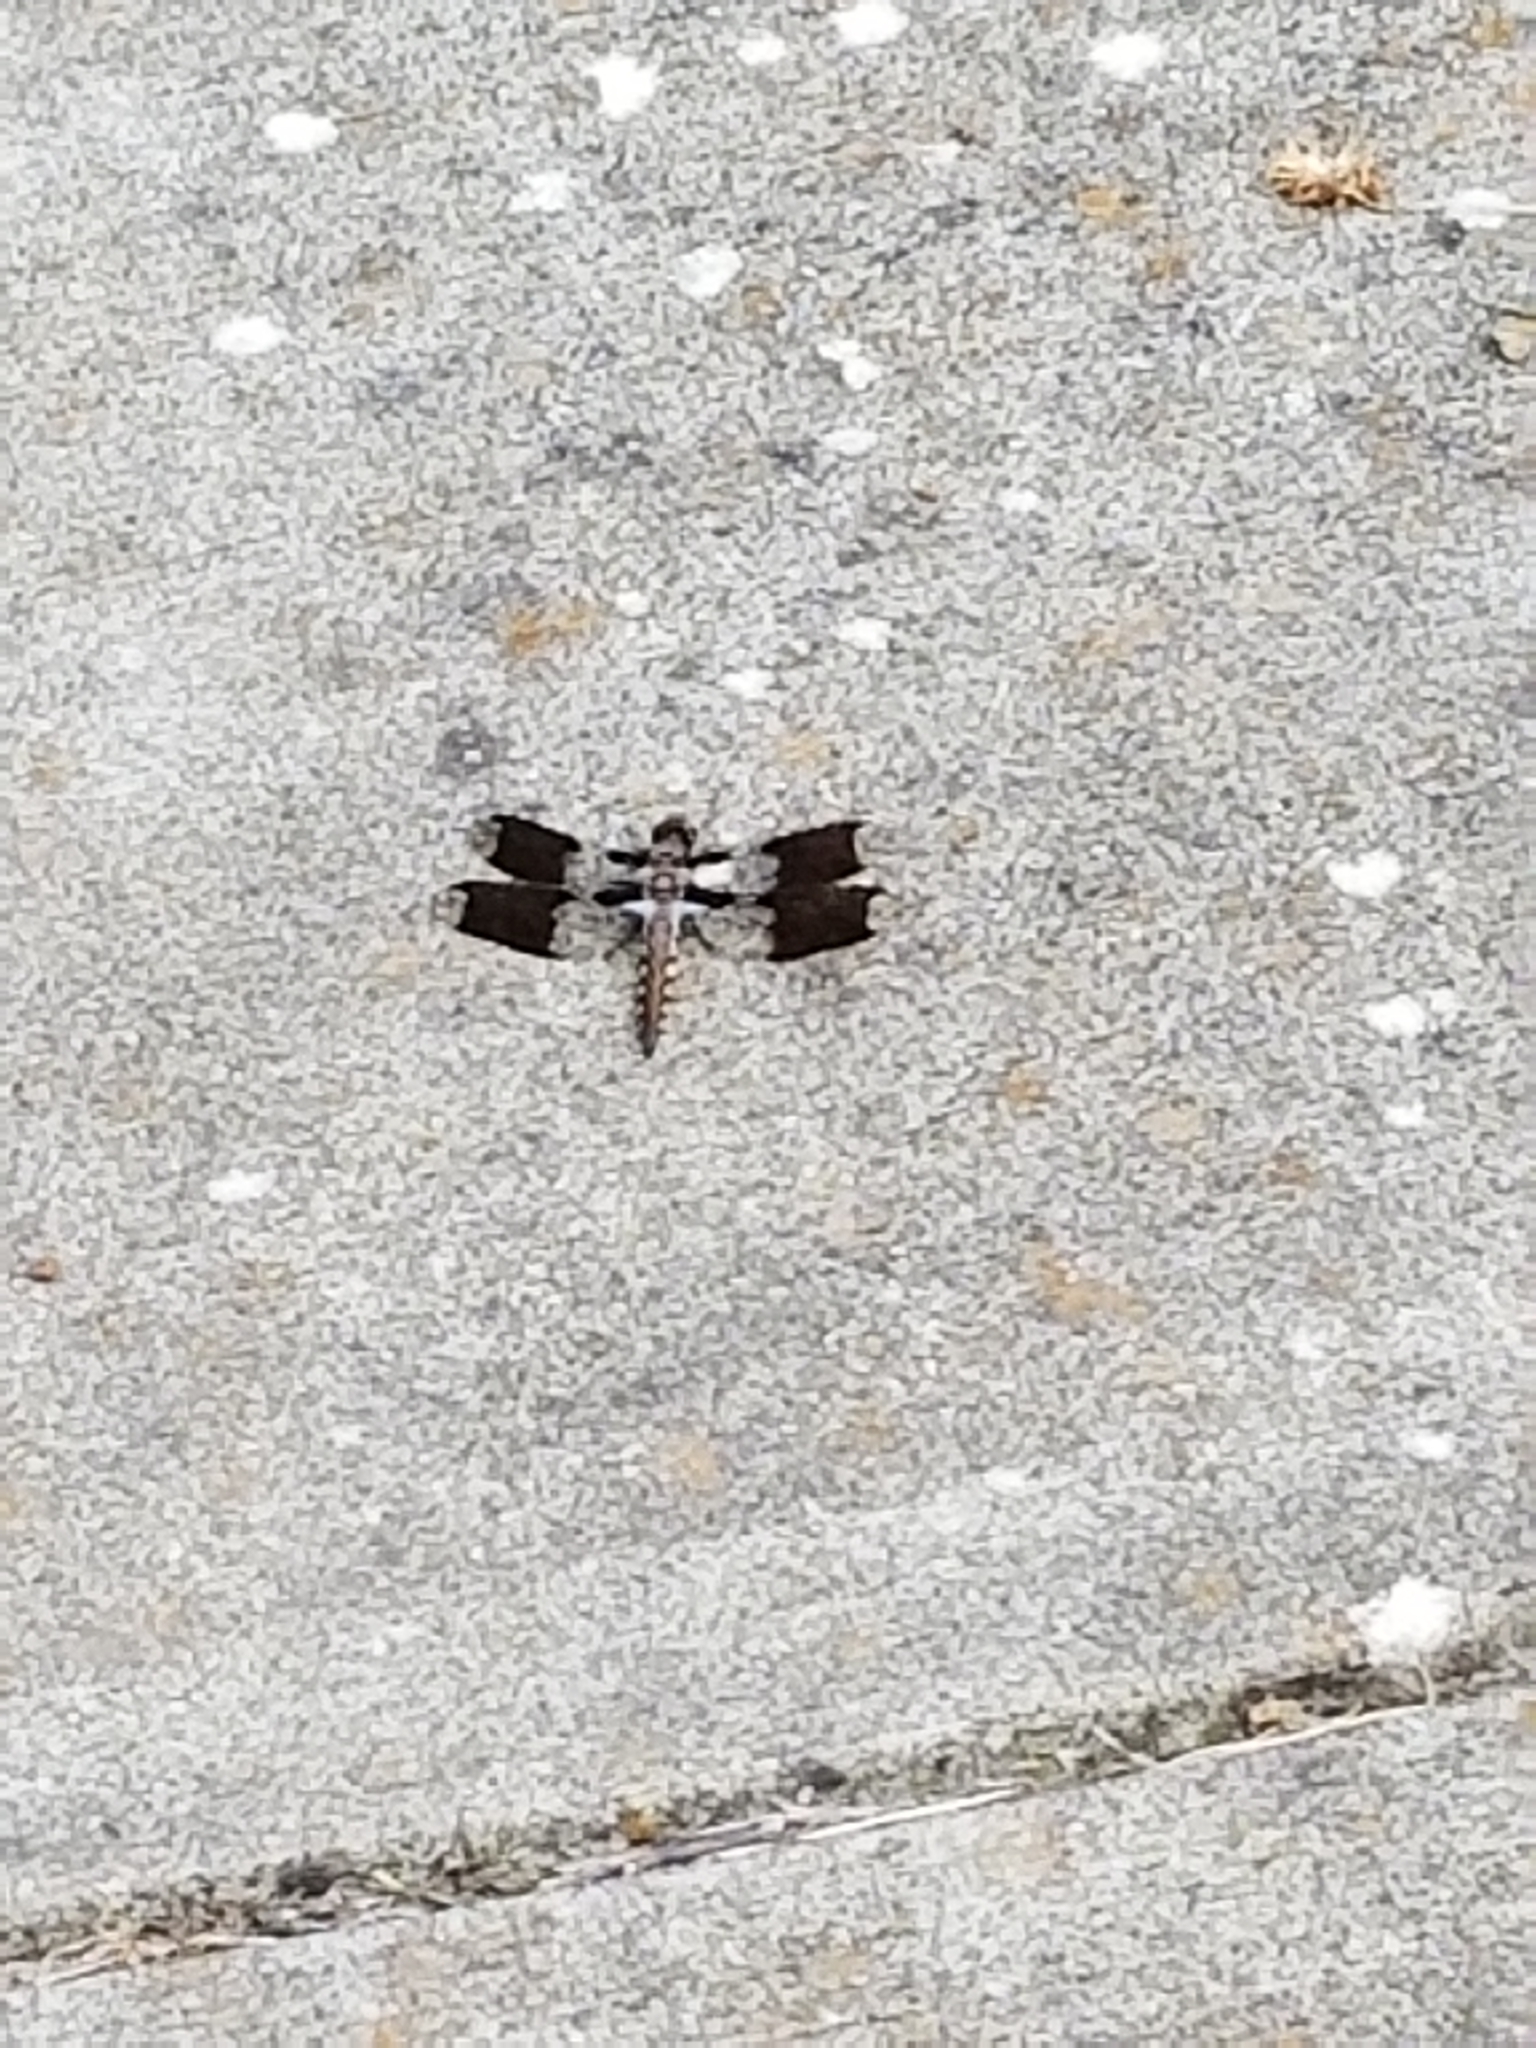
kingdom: Animalia
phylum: Arthropoda
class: Insecta
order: Odonata
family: Libellulidae
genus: Plathemis
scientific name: Plathemis lydia
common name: Common whitetail
